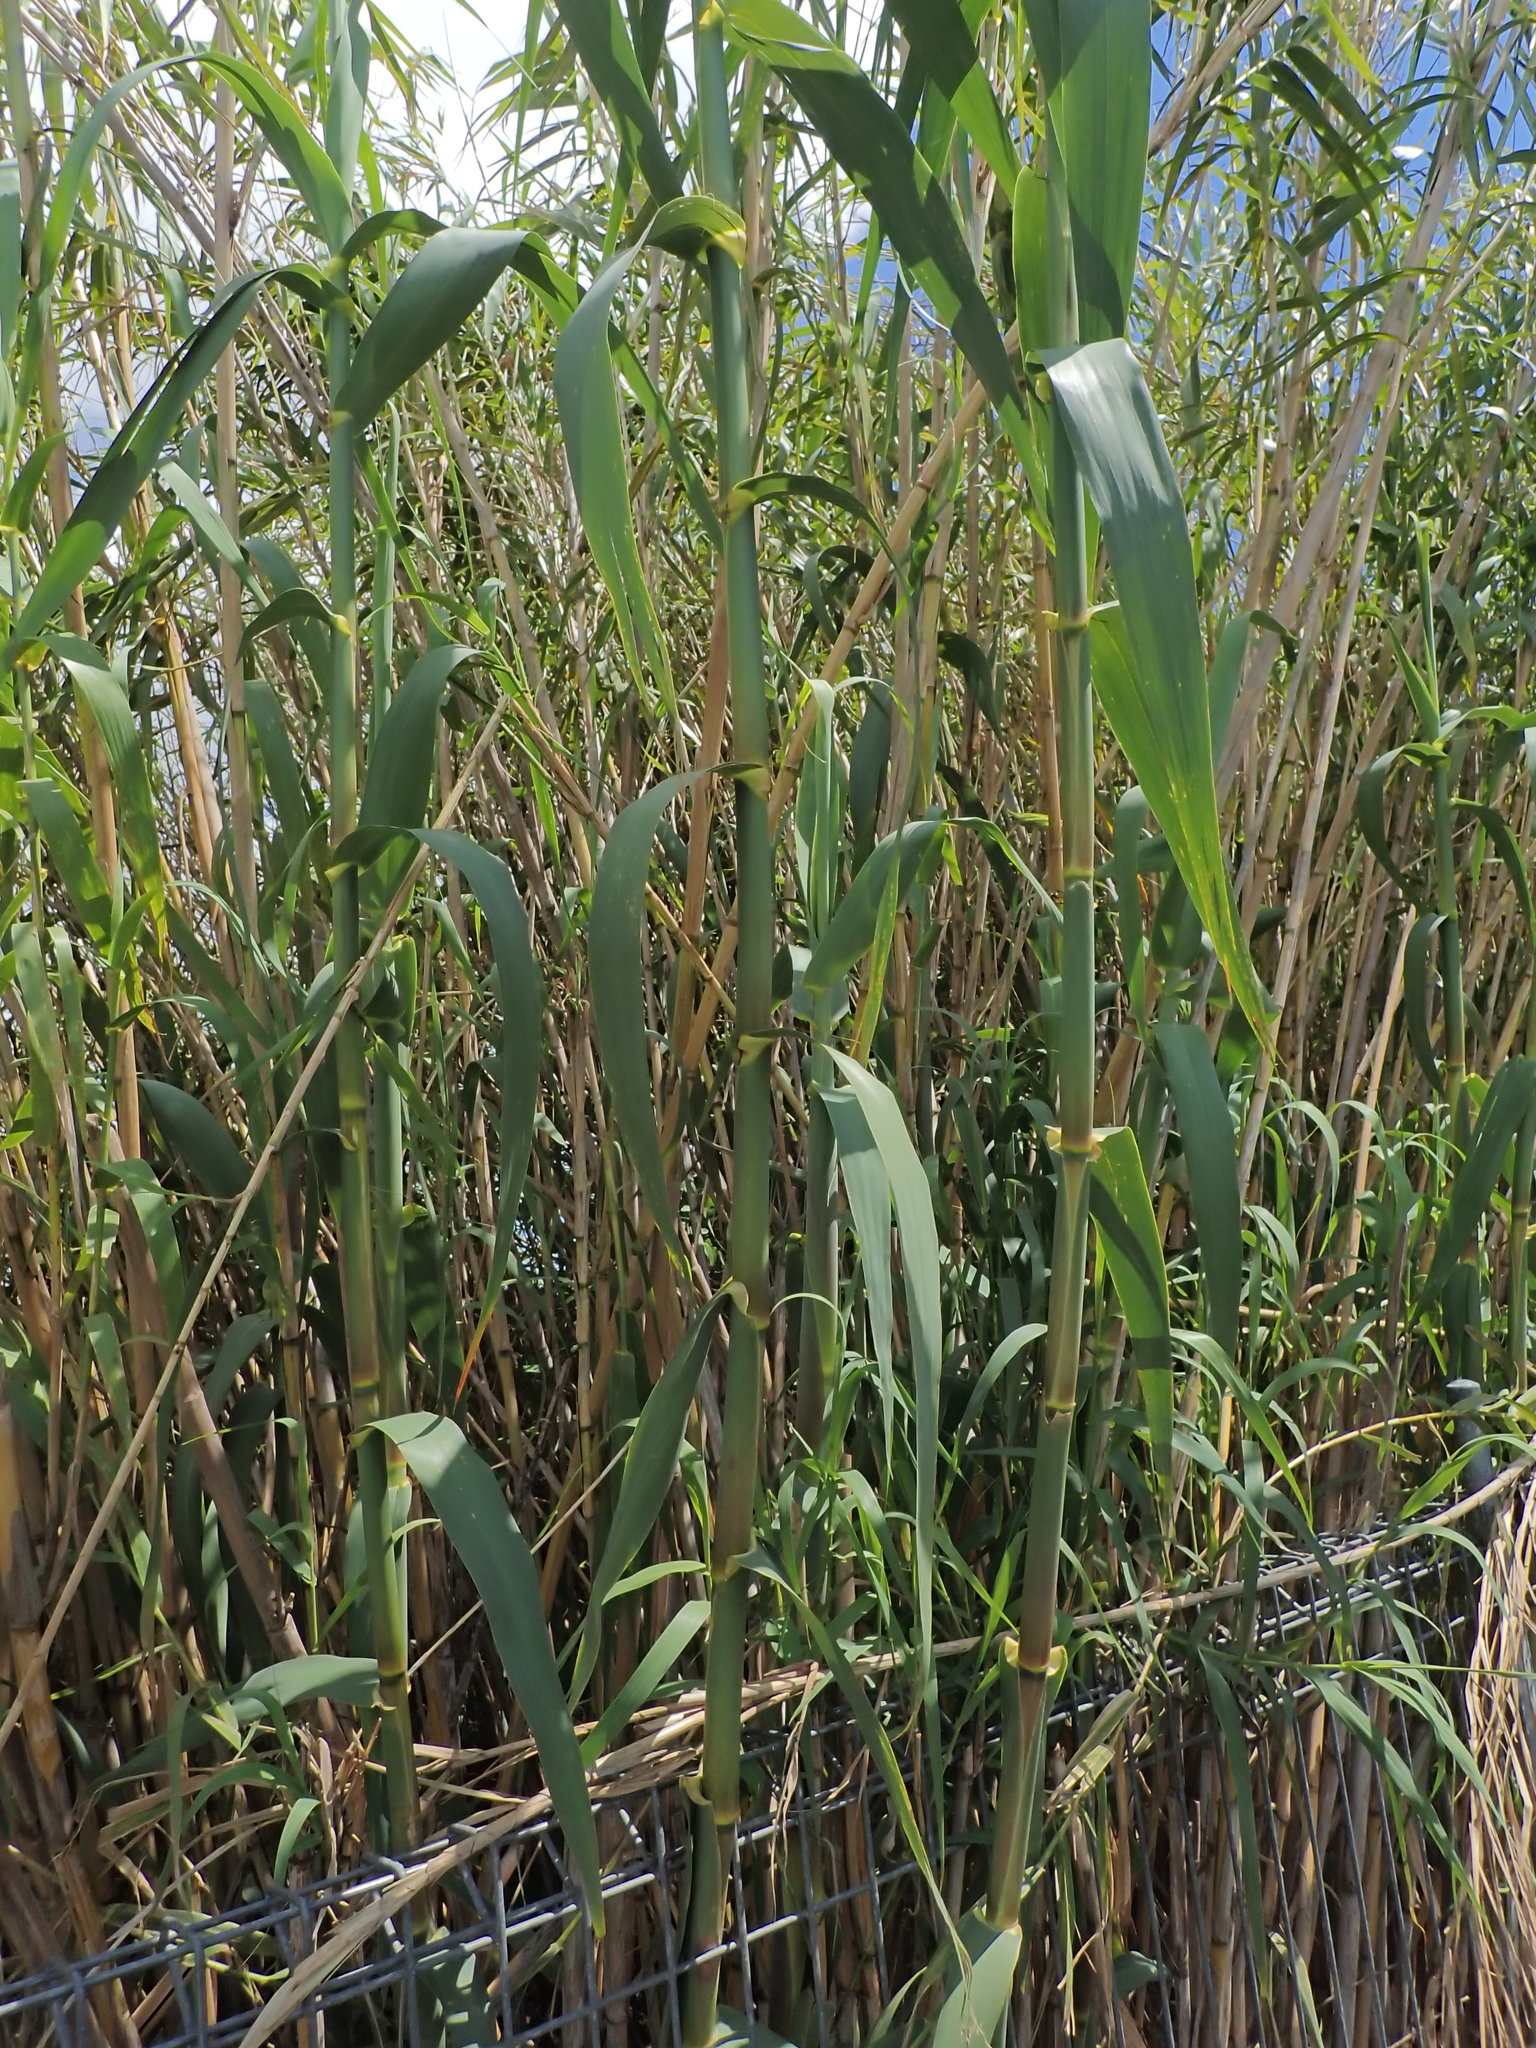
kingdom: Plantae
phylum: Tracheophyta
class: Liliopsida
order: Poales
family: Poaceae
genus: Arundo
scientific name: Arundo donax
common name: Giant reed
